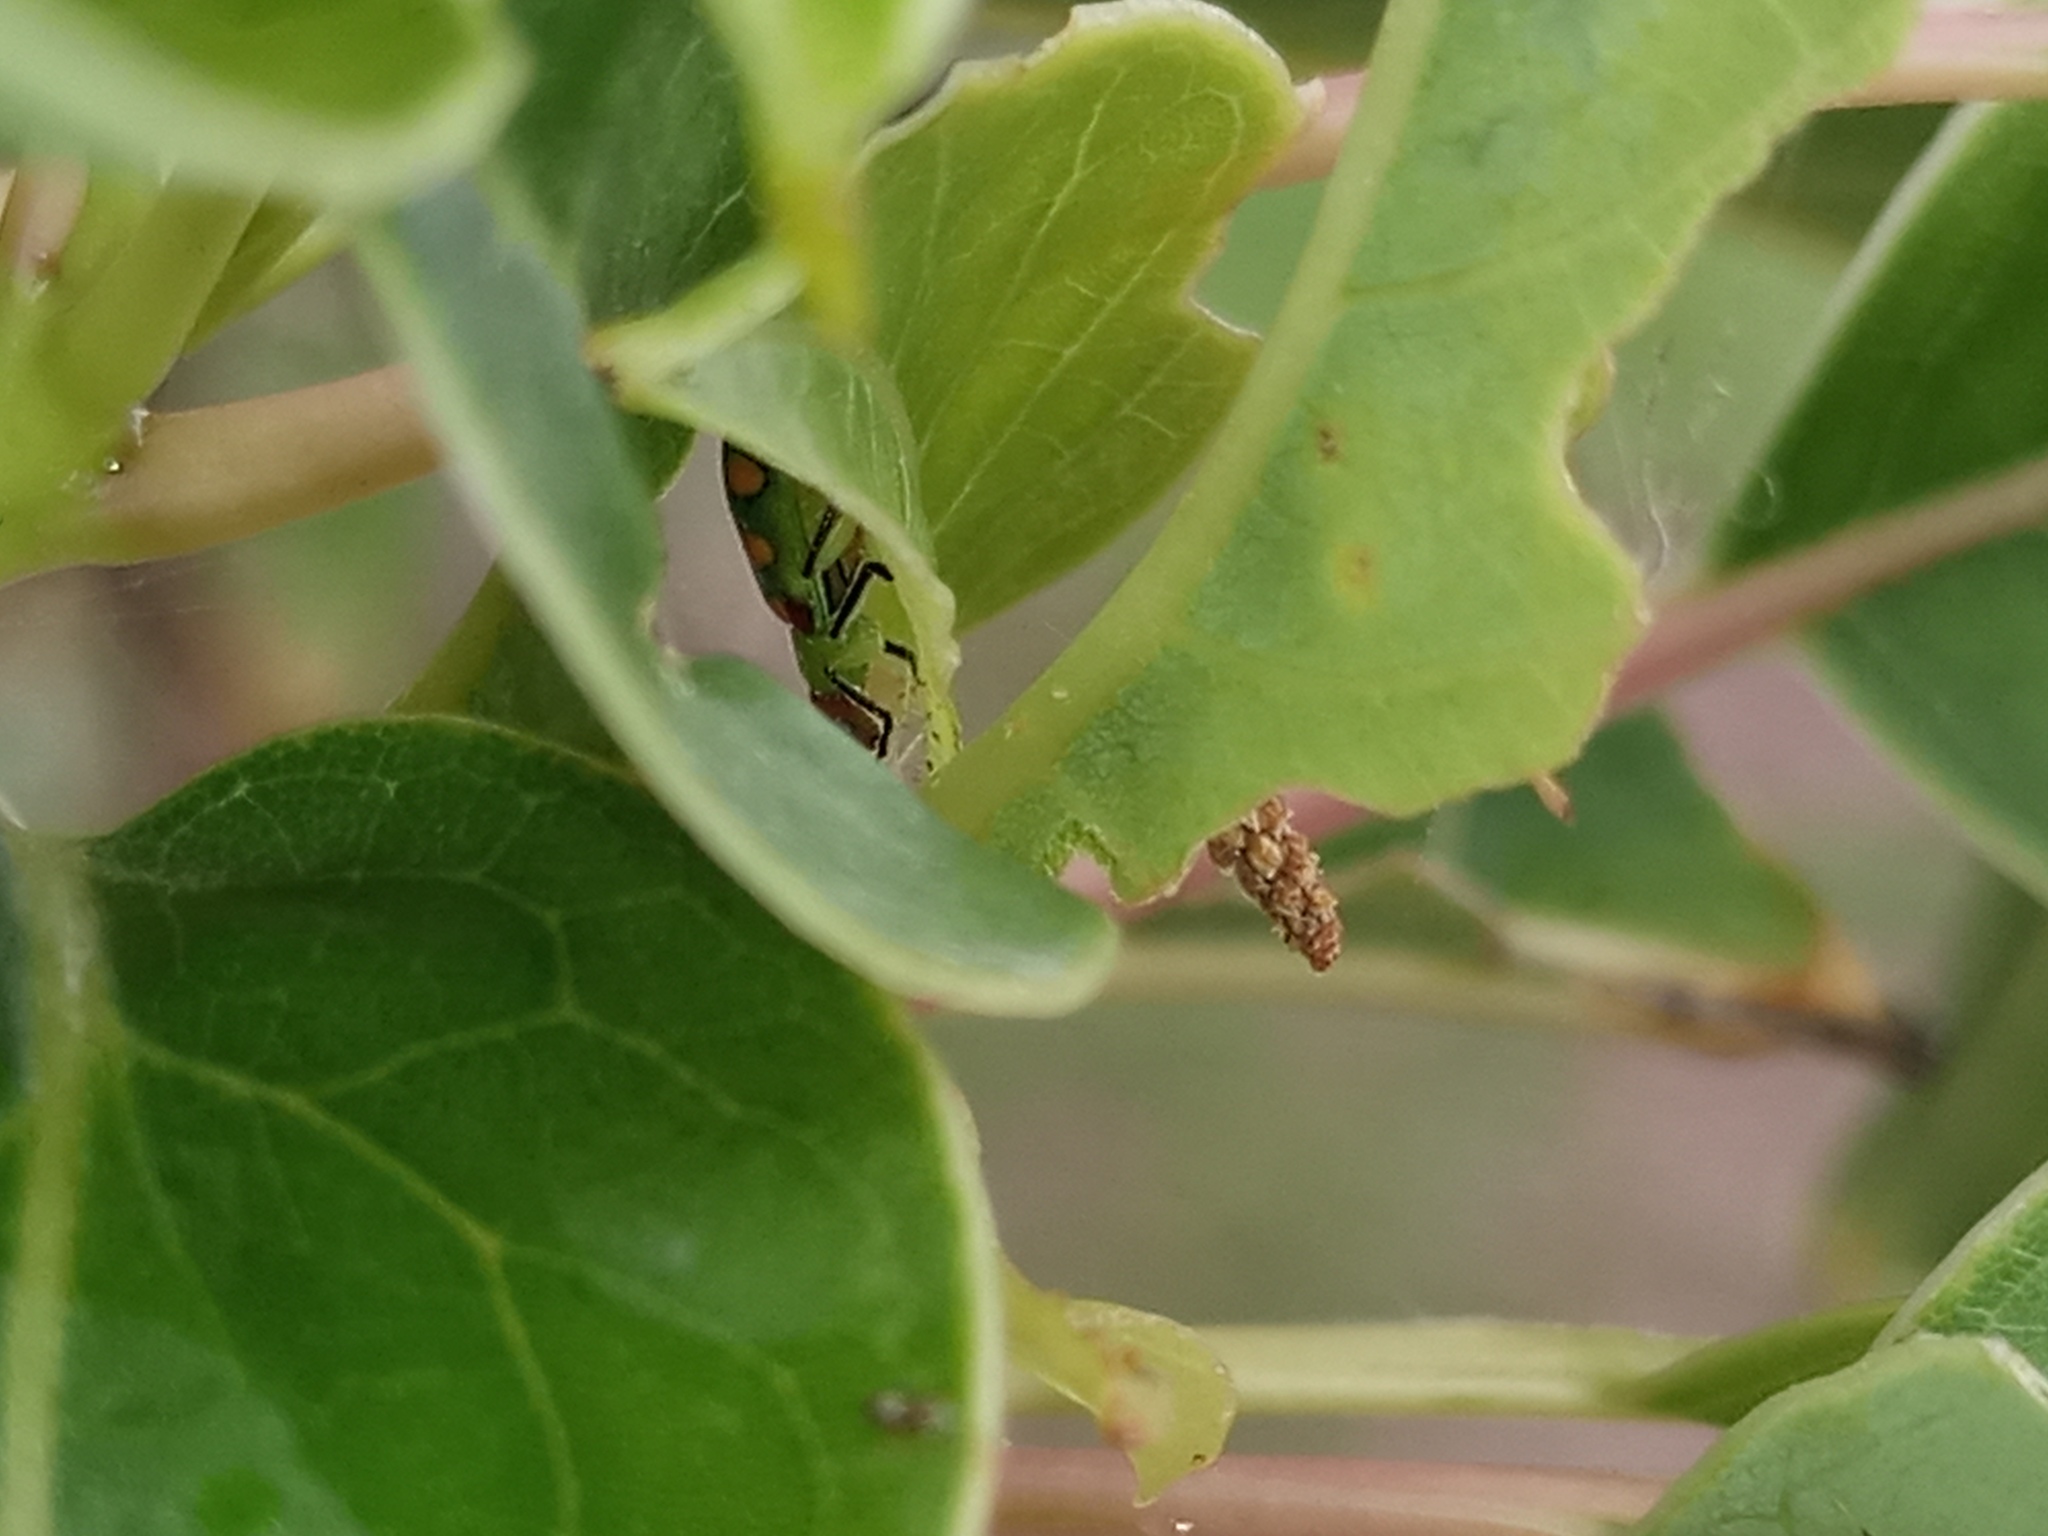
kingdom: Animalia
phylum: Arthropoda
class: Insecta
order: Coleoptera
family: Chrysomelidae
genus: Diabrotica
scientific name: Diabrotica speciosa
